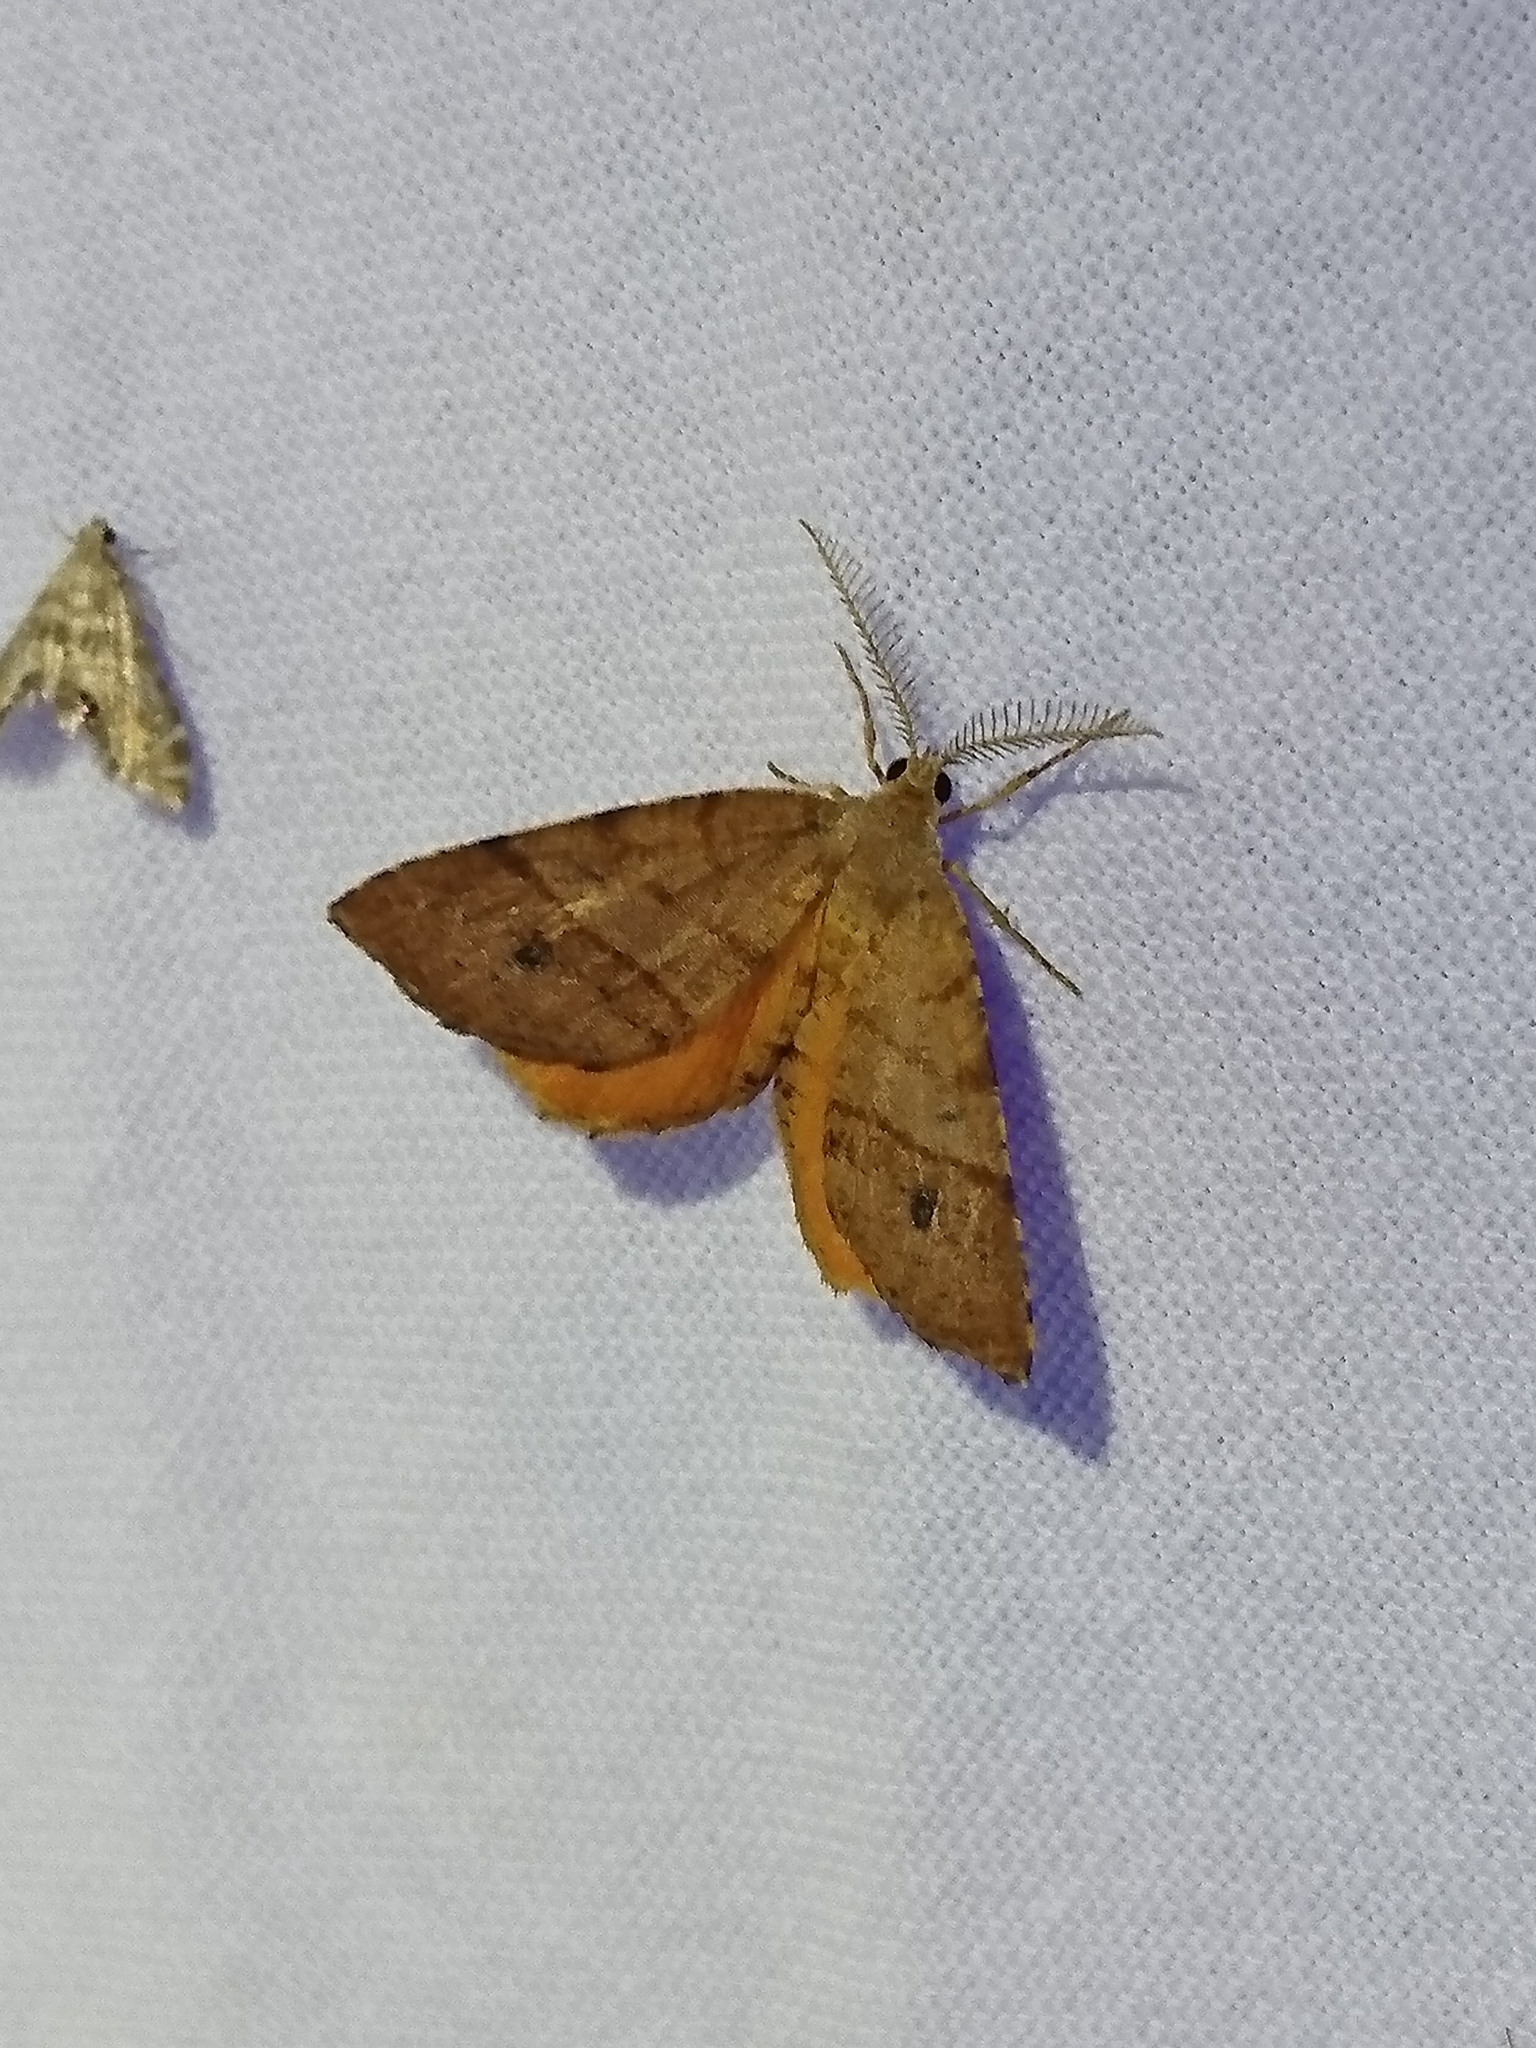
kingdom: Animalia
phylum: Arthropoda
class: Insecta
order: Lepidoptera
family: Geometridae
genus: Mellilla
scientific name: Mellilla xanthometata
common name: Orange wing moth
